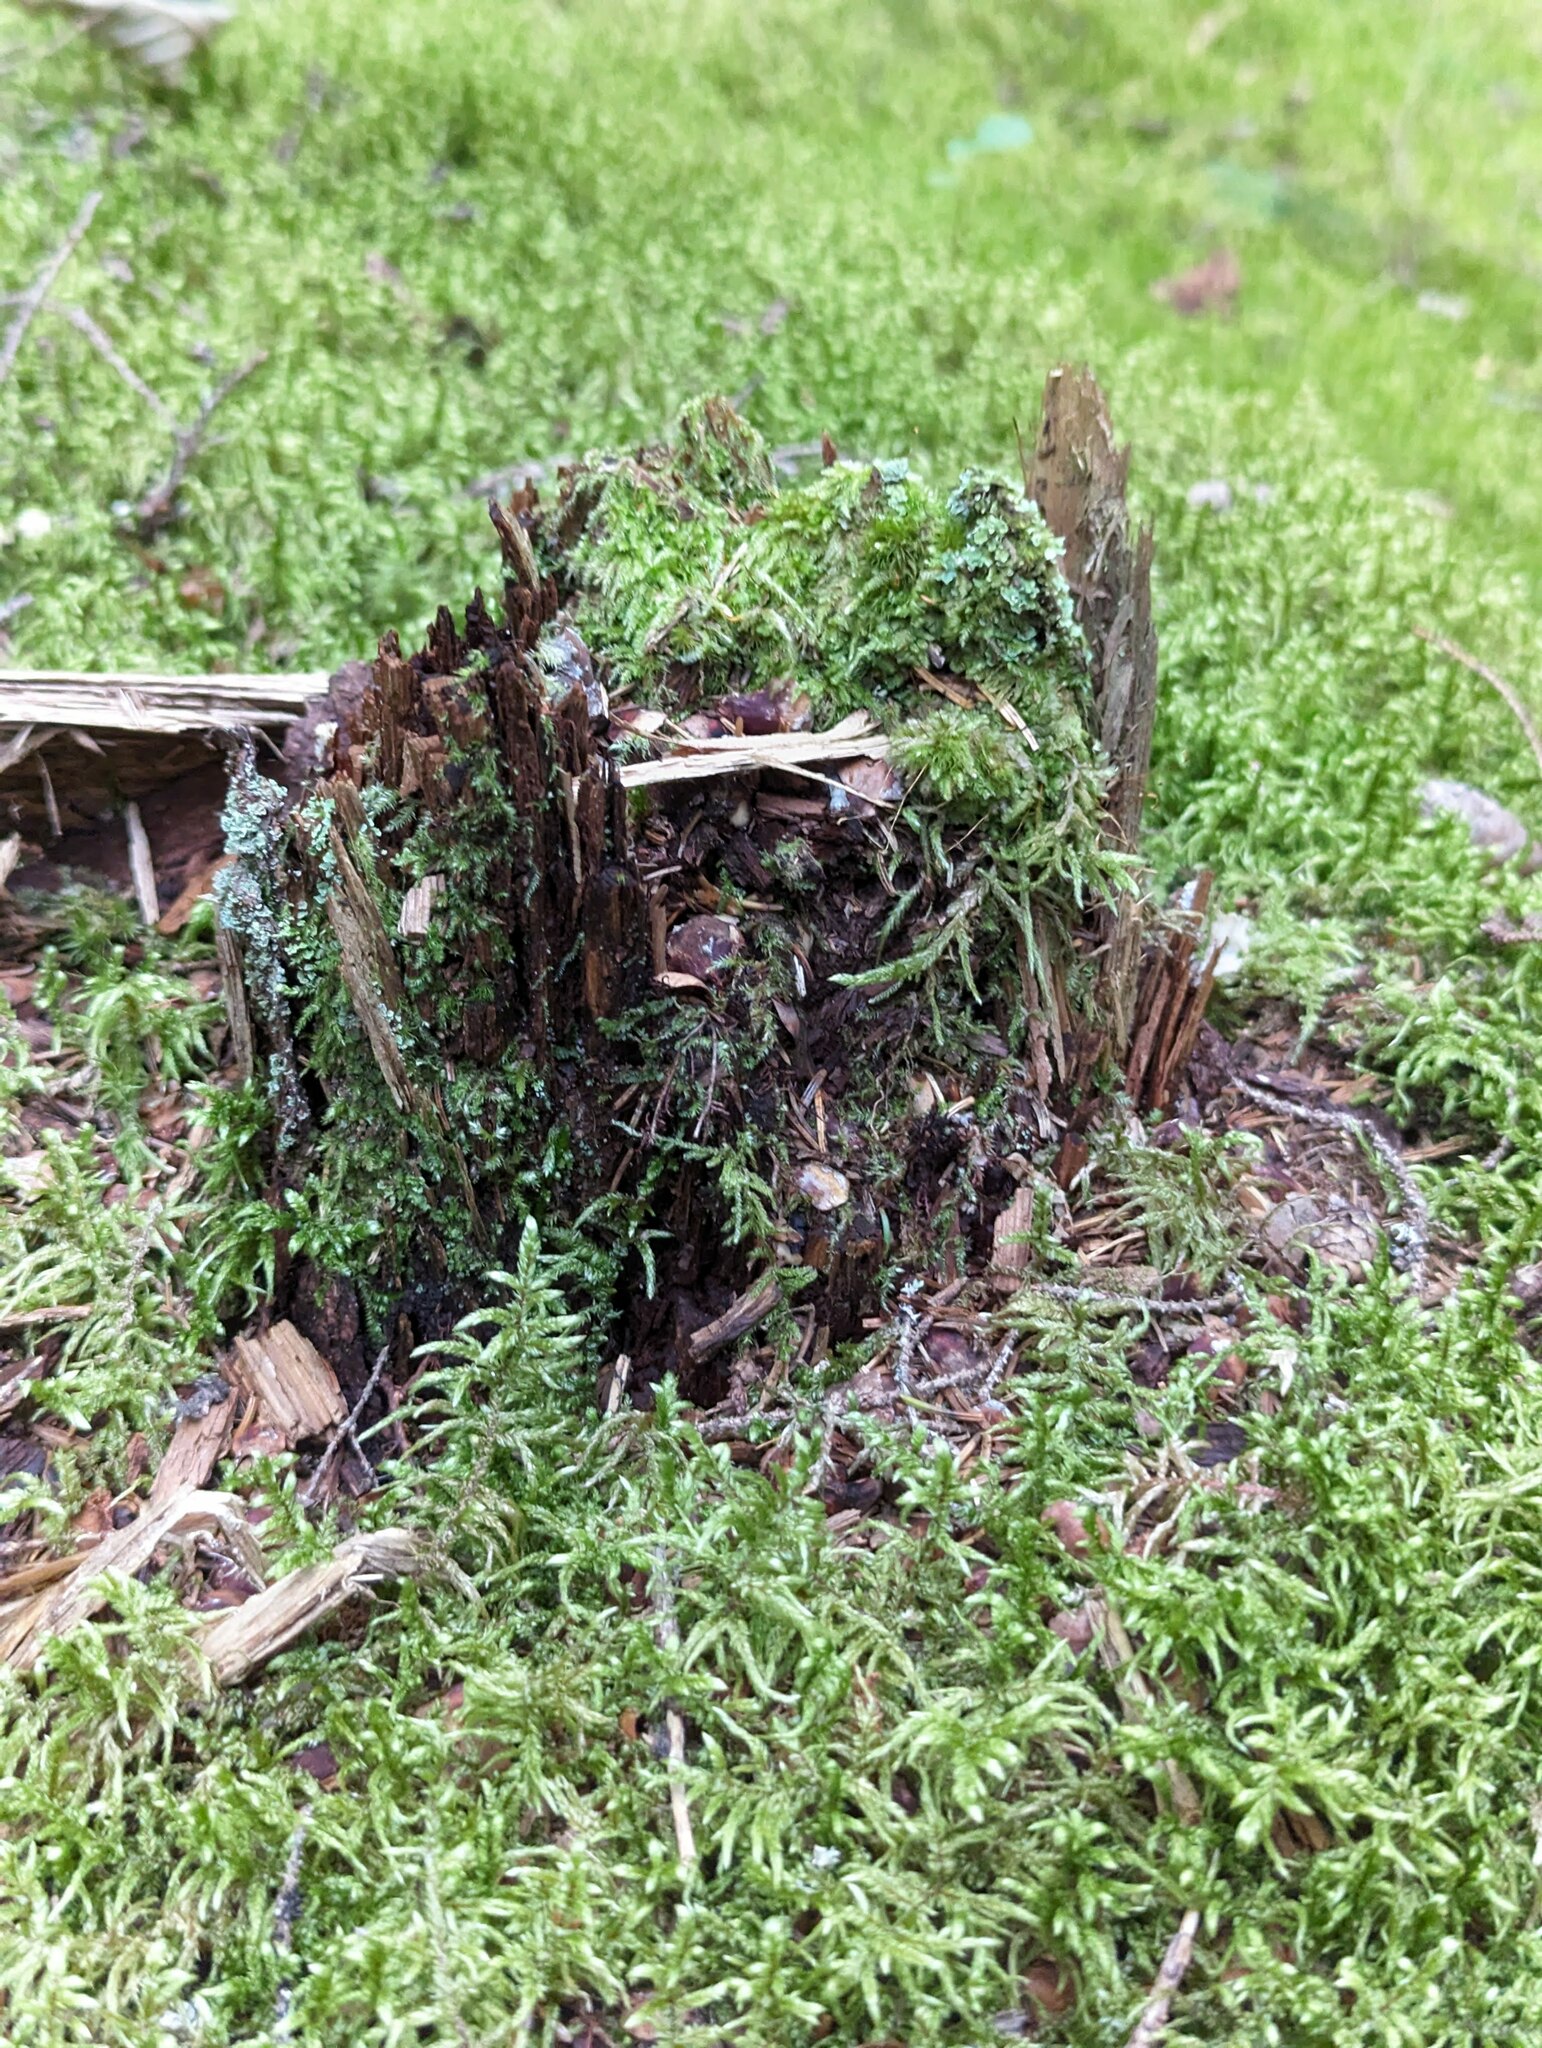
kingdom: Plantae
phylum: Bryophyta
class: Bryopsida
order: Hypnales
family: Hylocomiaceae
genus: Pleurozium
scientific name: Pleurozium schreberi
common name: Red-stemmed feather moss
